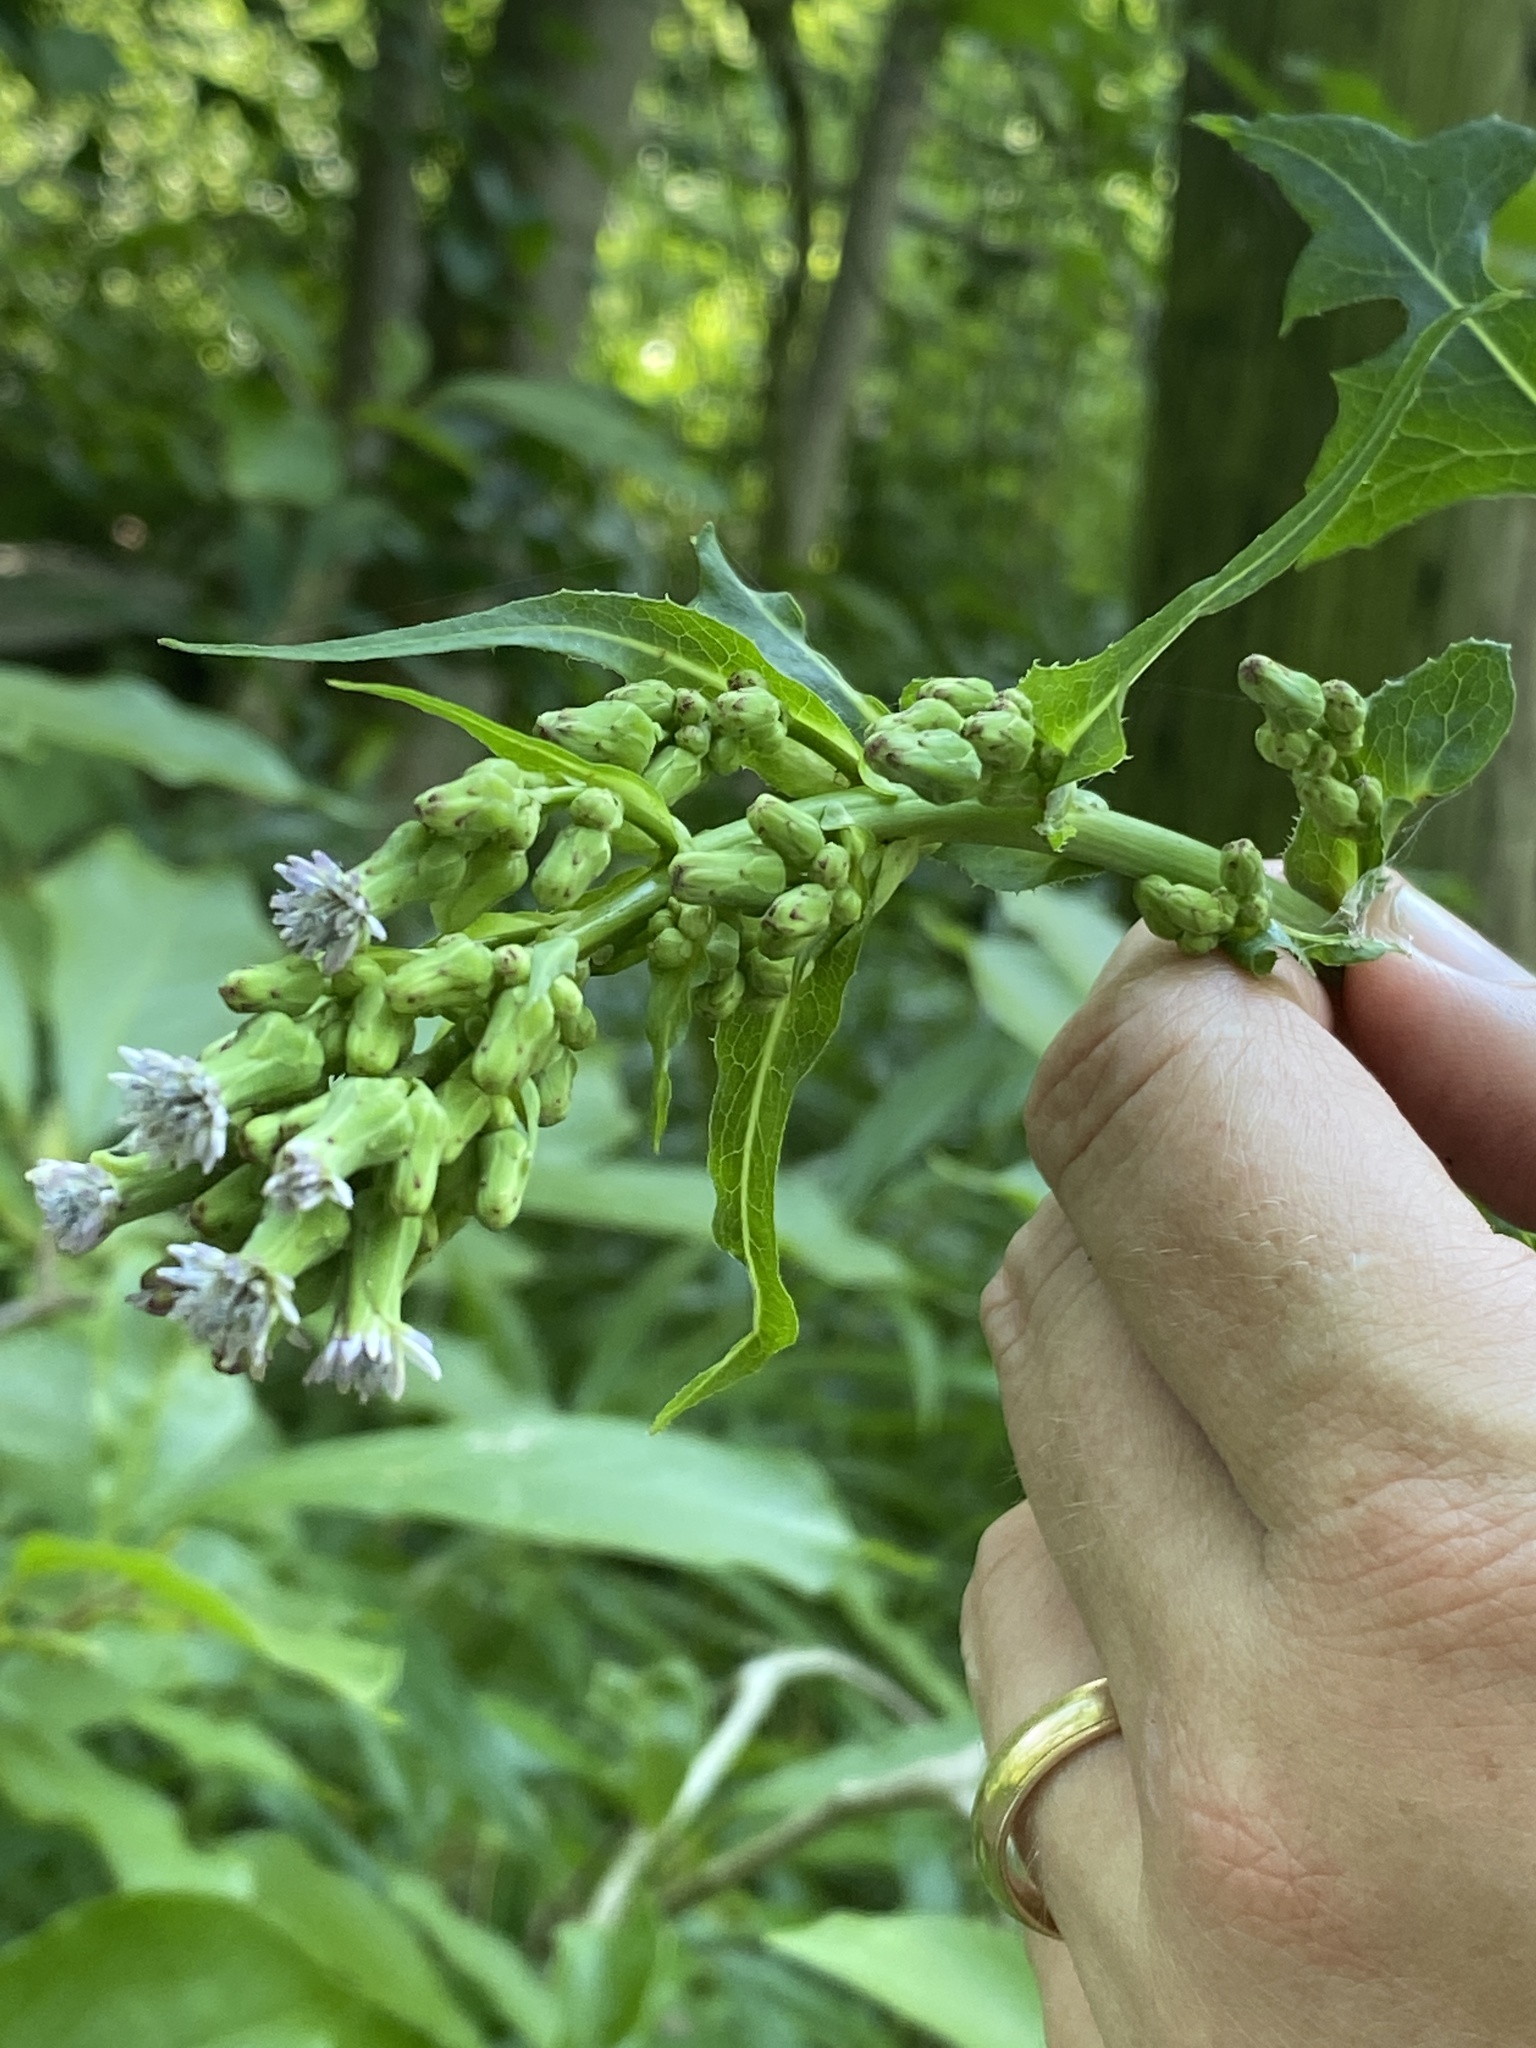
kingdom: Plantae
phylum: Tracheophyta
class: Magnoliopsida
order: Asterales
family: Asteraceae
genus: Lactuca
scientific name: Lactuca biennis
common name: Blue wood lettuce
